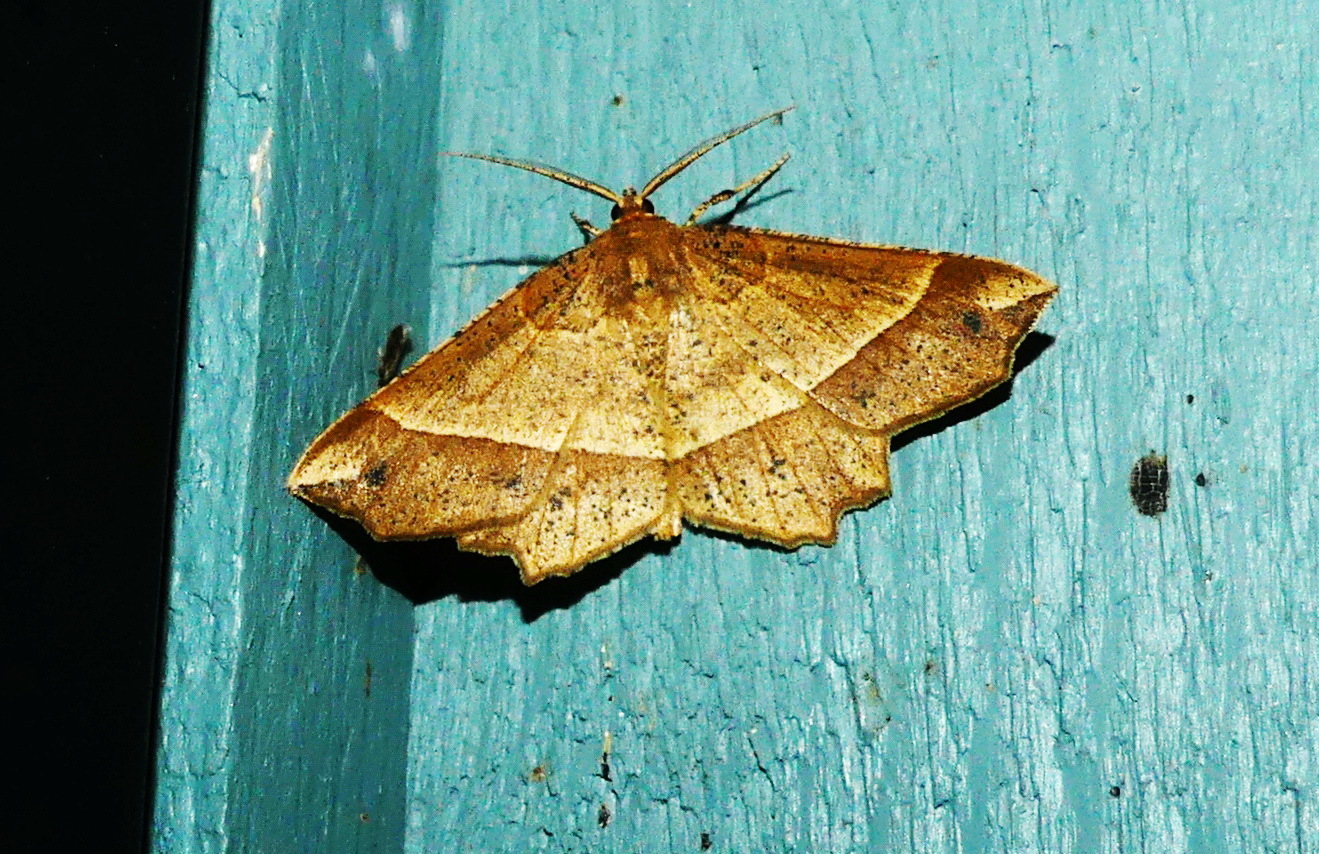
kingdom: Animalia
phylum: Arthropoda
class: Insecta
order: Lepidoptera
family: Geometridae
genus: Euchlaena
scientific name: Euchlaena tigrinaria
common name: Mottled euchlaena moth
